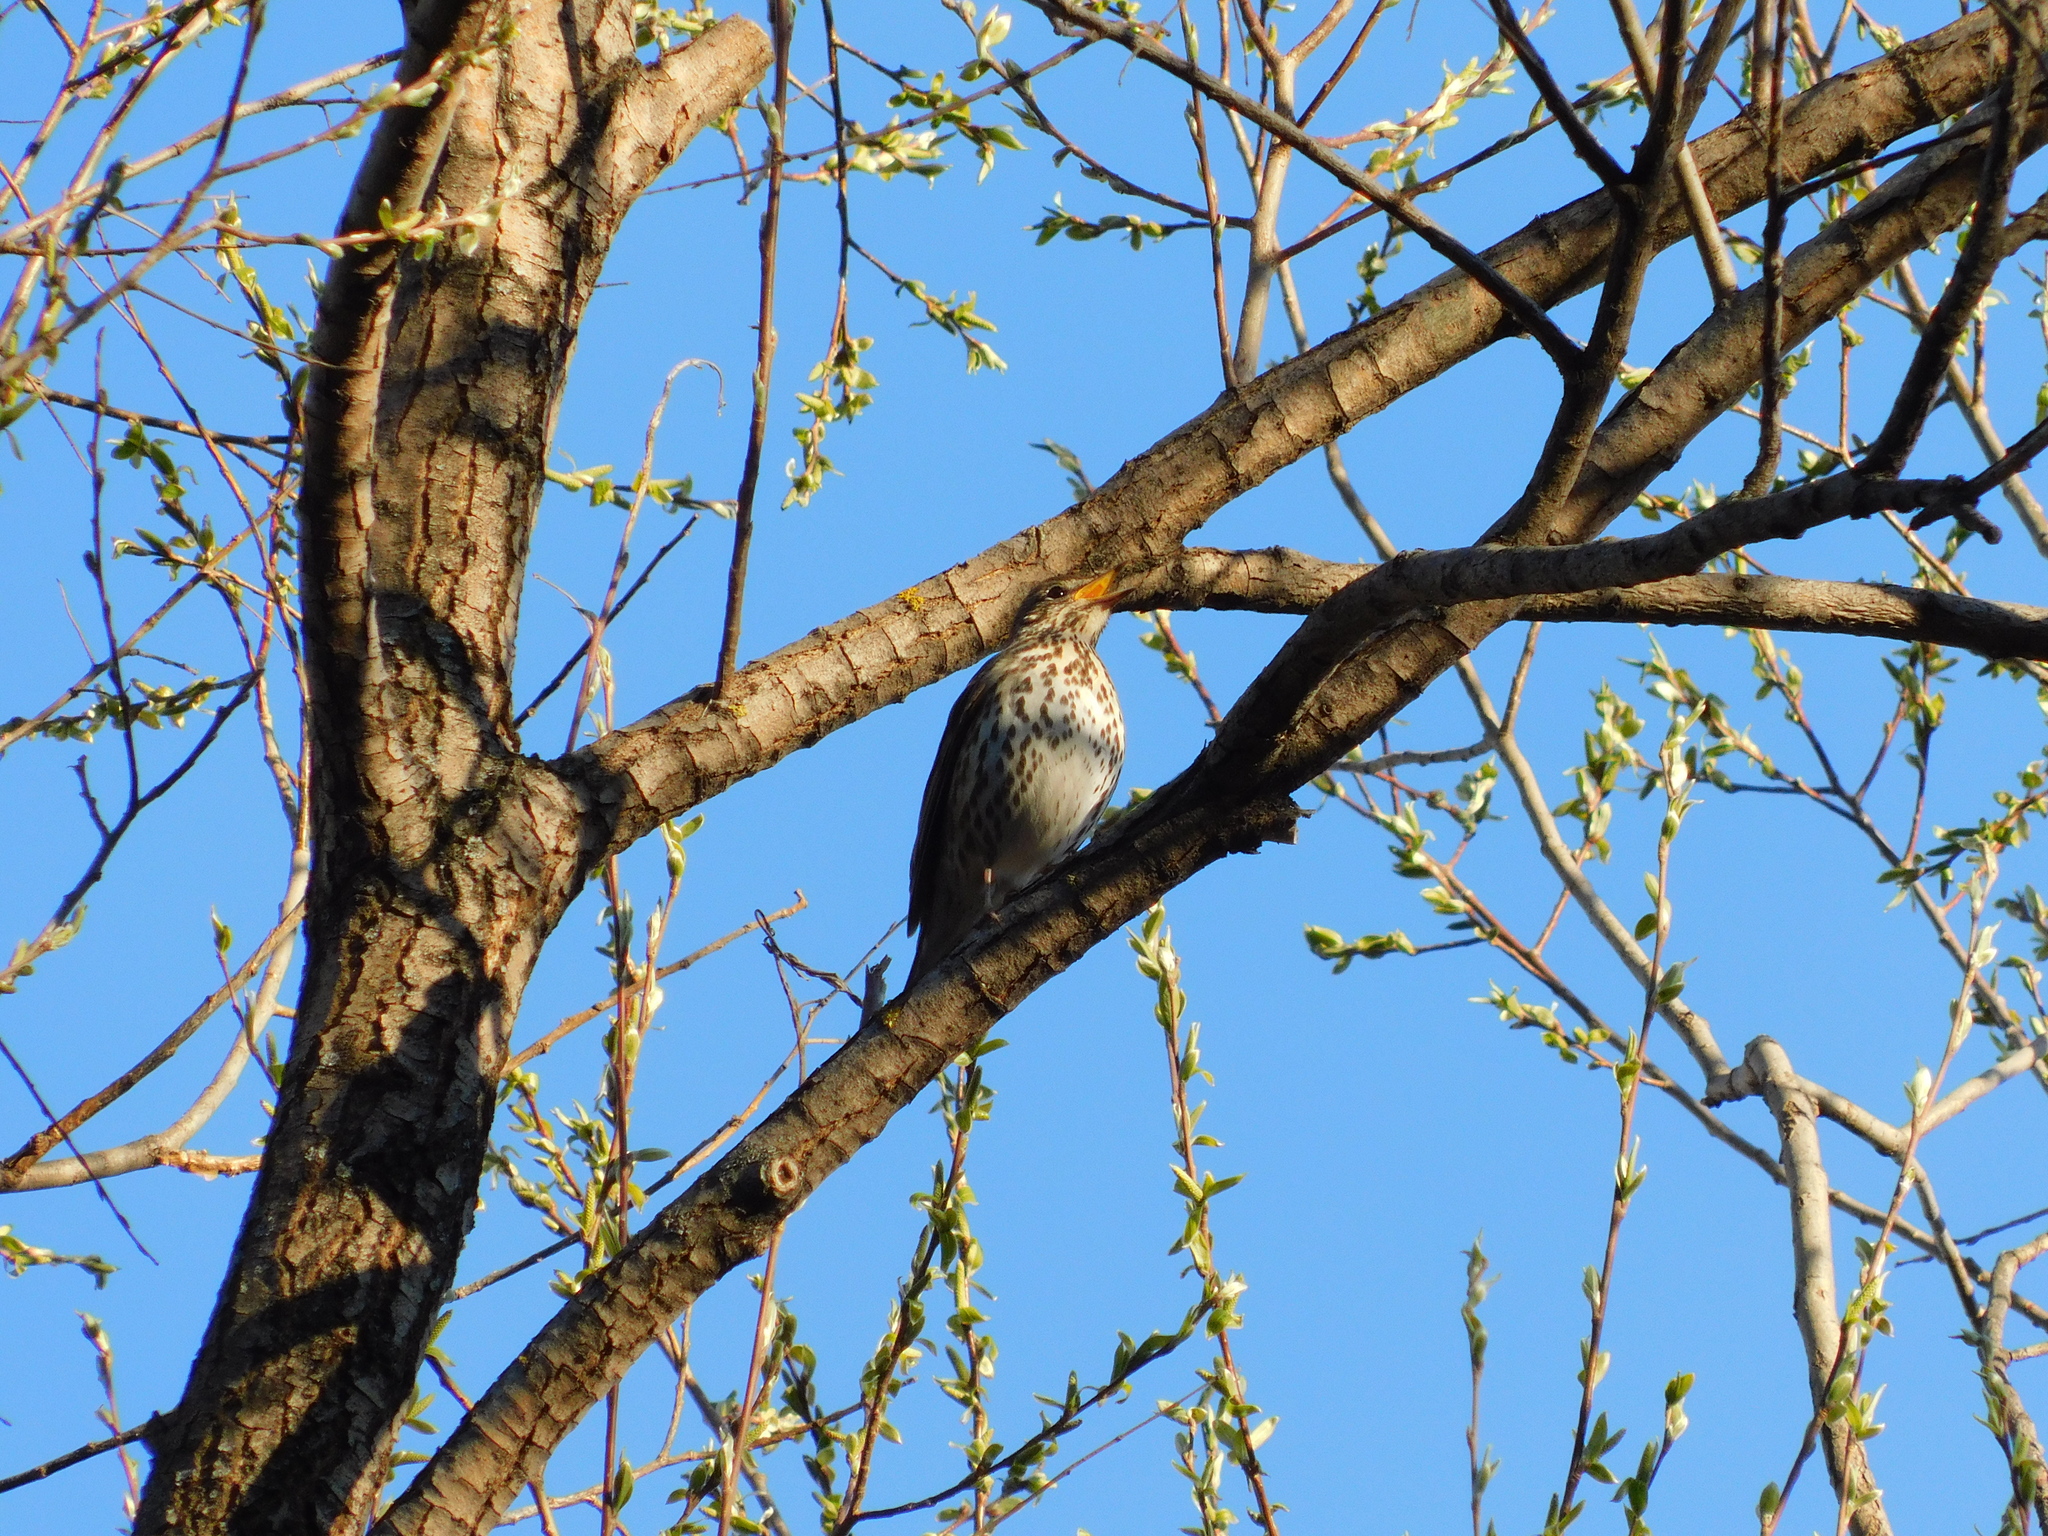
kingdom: Animalia
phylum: Chordata
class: Aves
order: Passeriformes
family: Turdidae
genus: Turdus
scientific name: Turdus philomelos
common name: Song thrush
